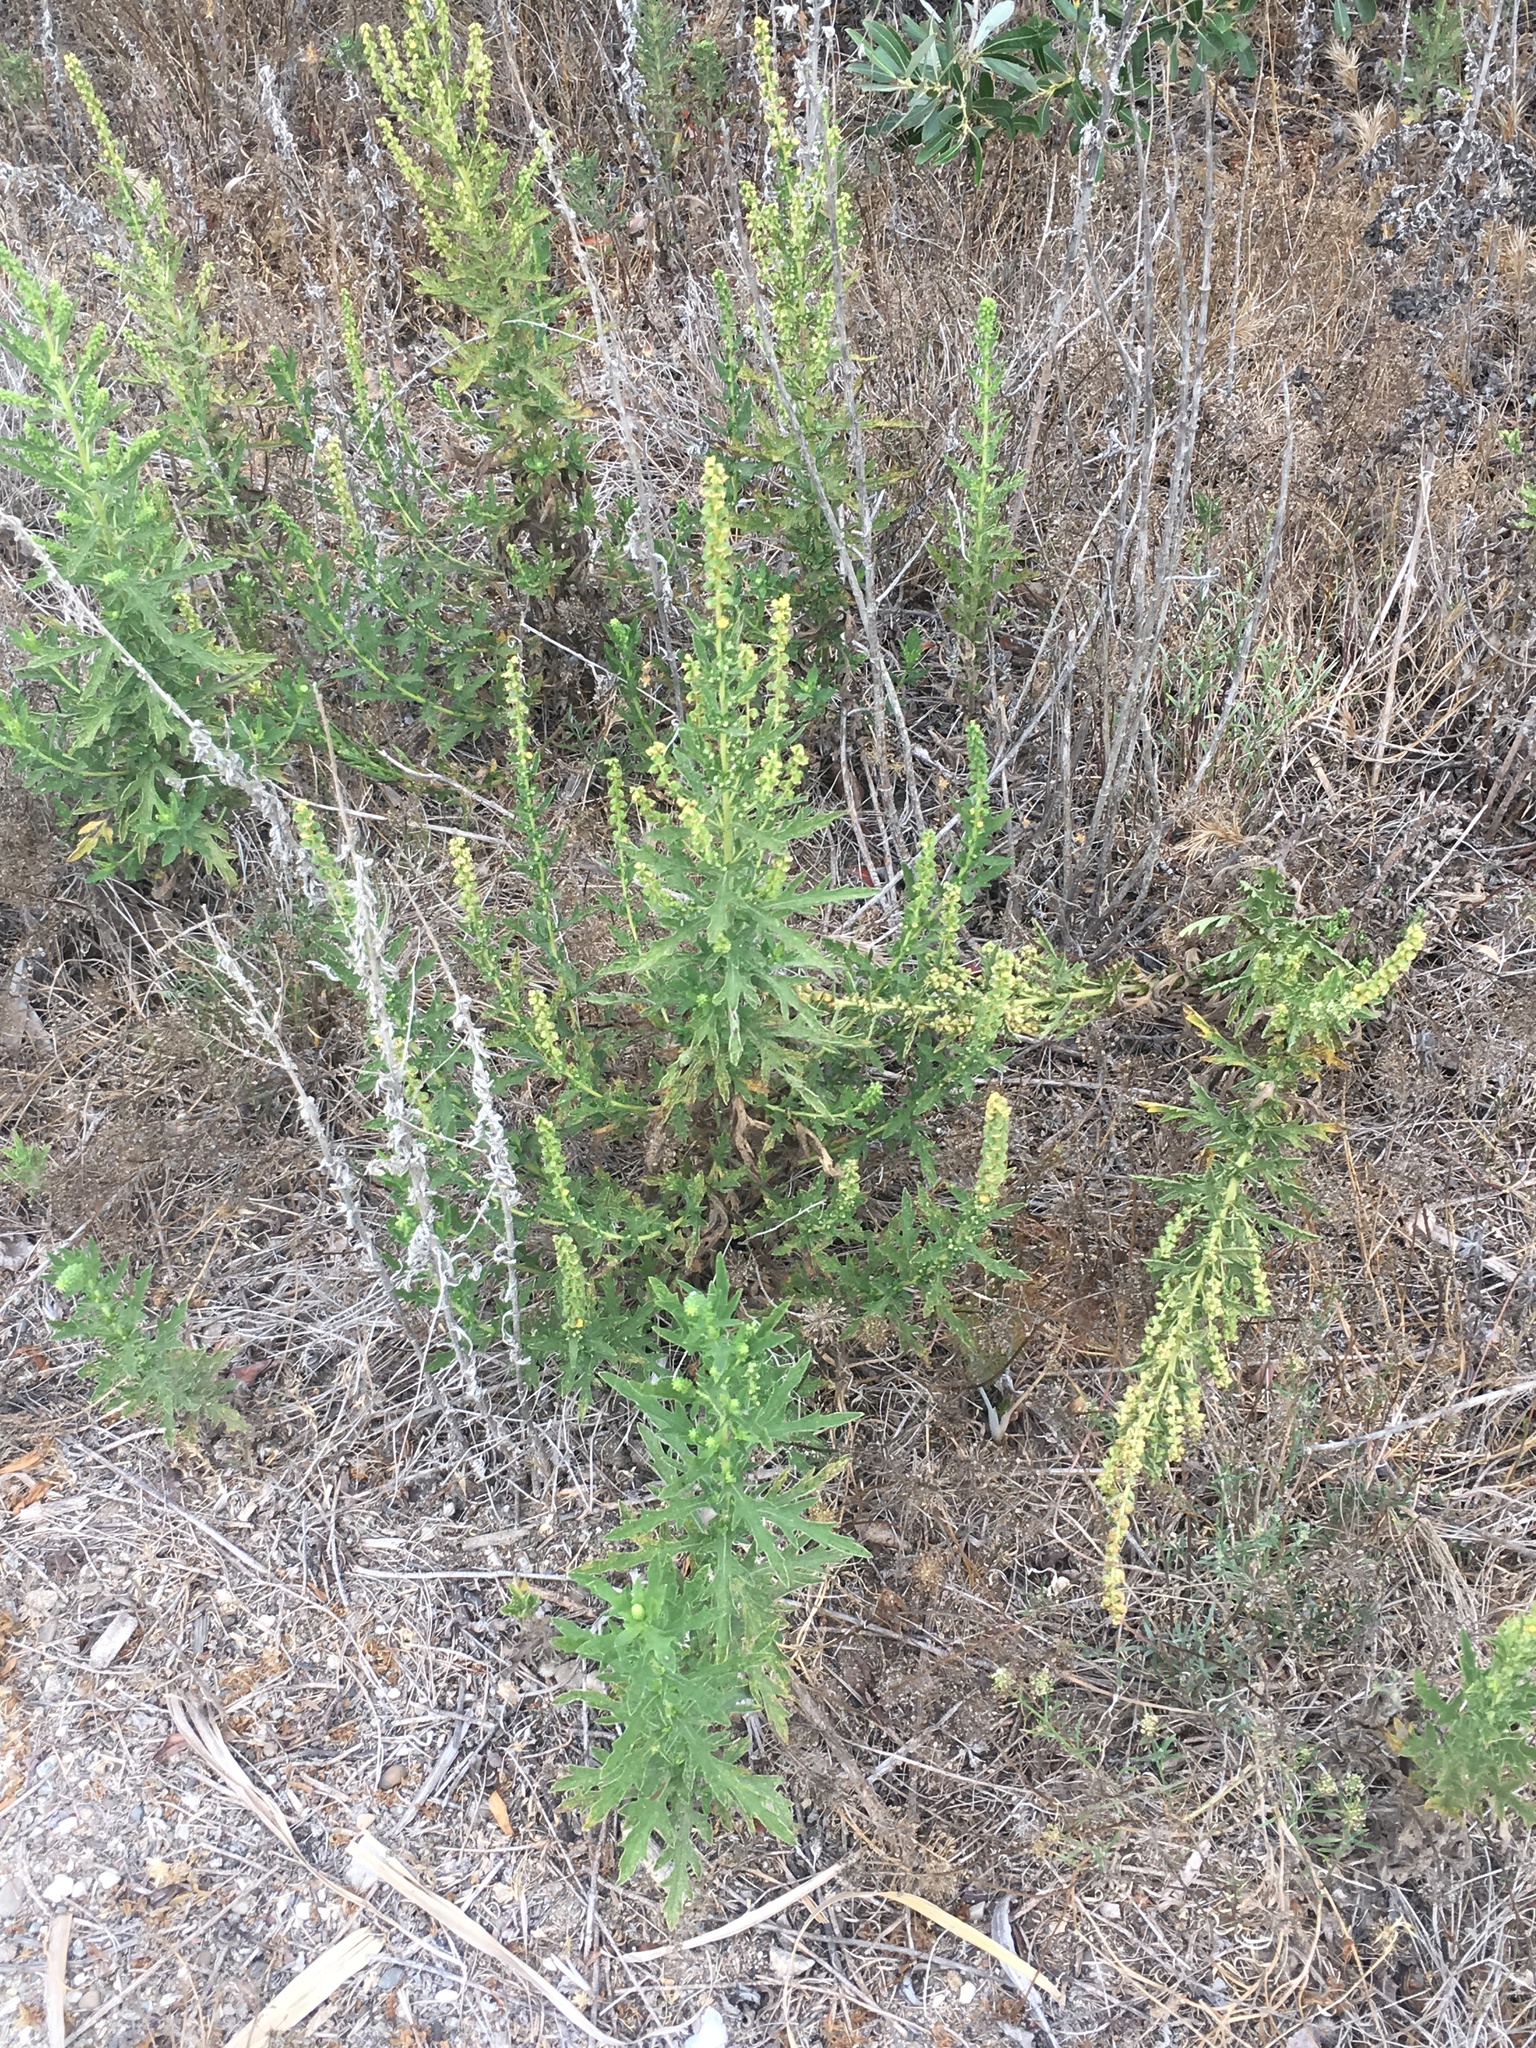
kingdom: Plantae
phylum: Tracheophyta
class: Magnoliopsida
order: Asterales
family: Asteraceae
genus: Ambrosia
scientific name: Ambrosia psilostachya
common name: Perennial ragweed
